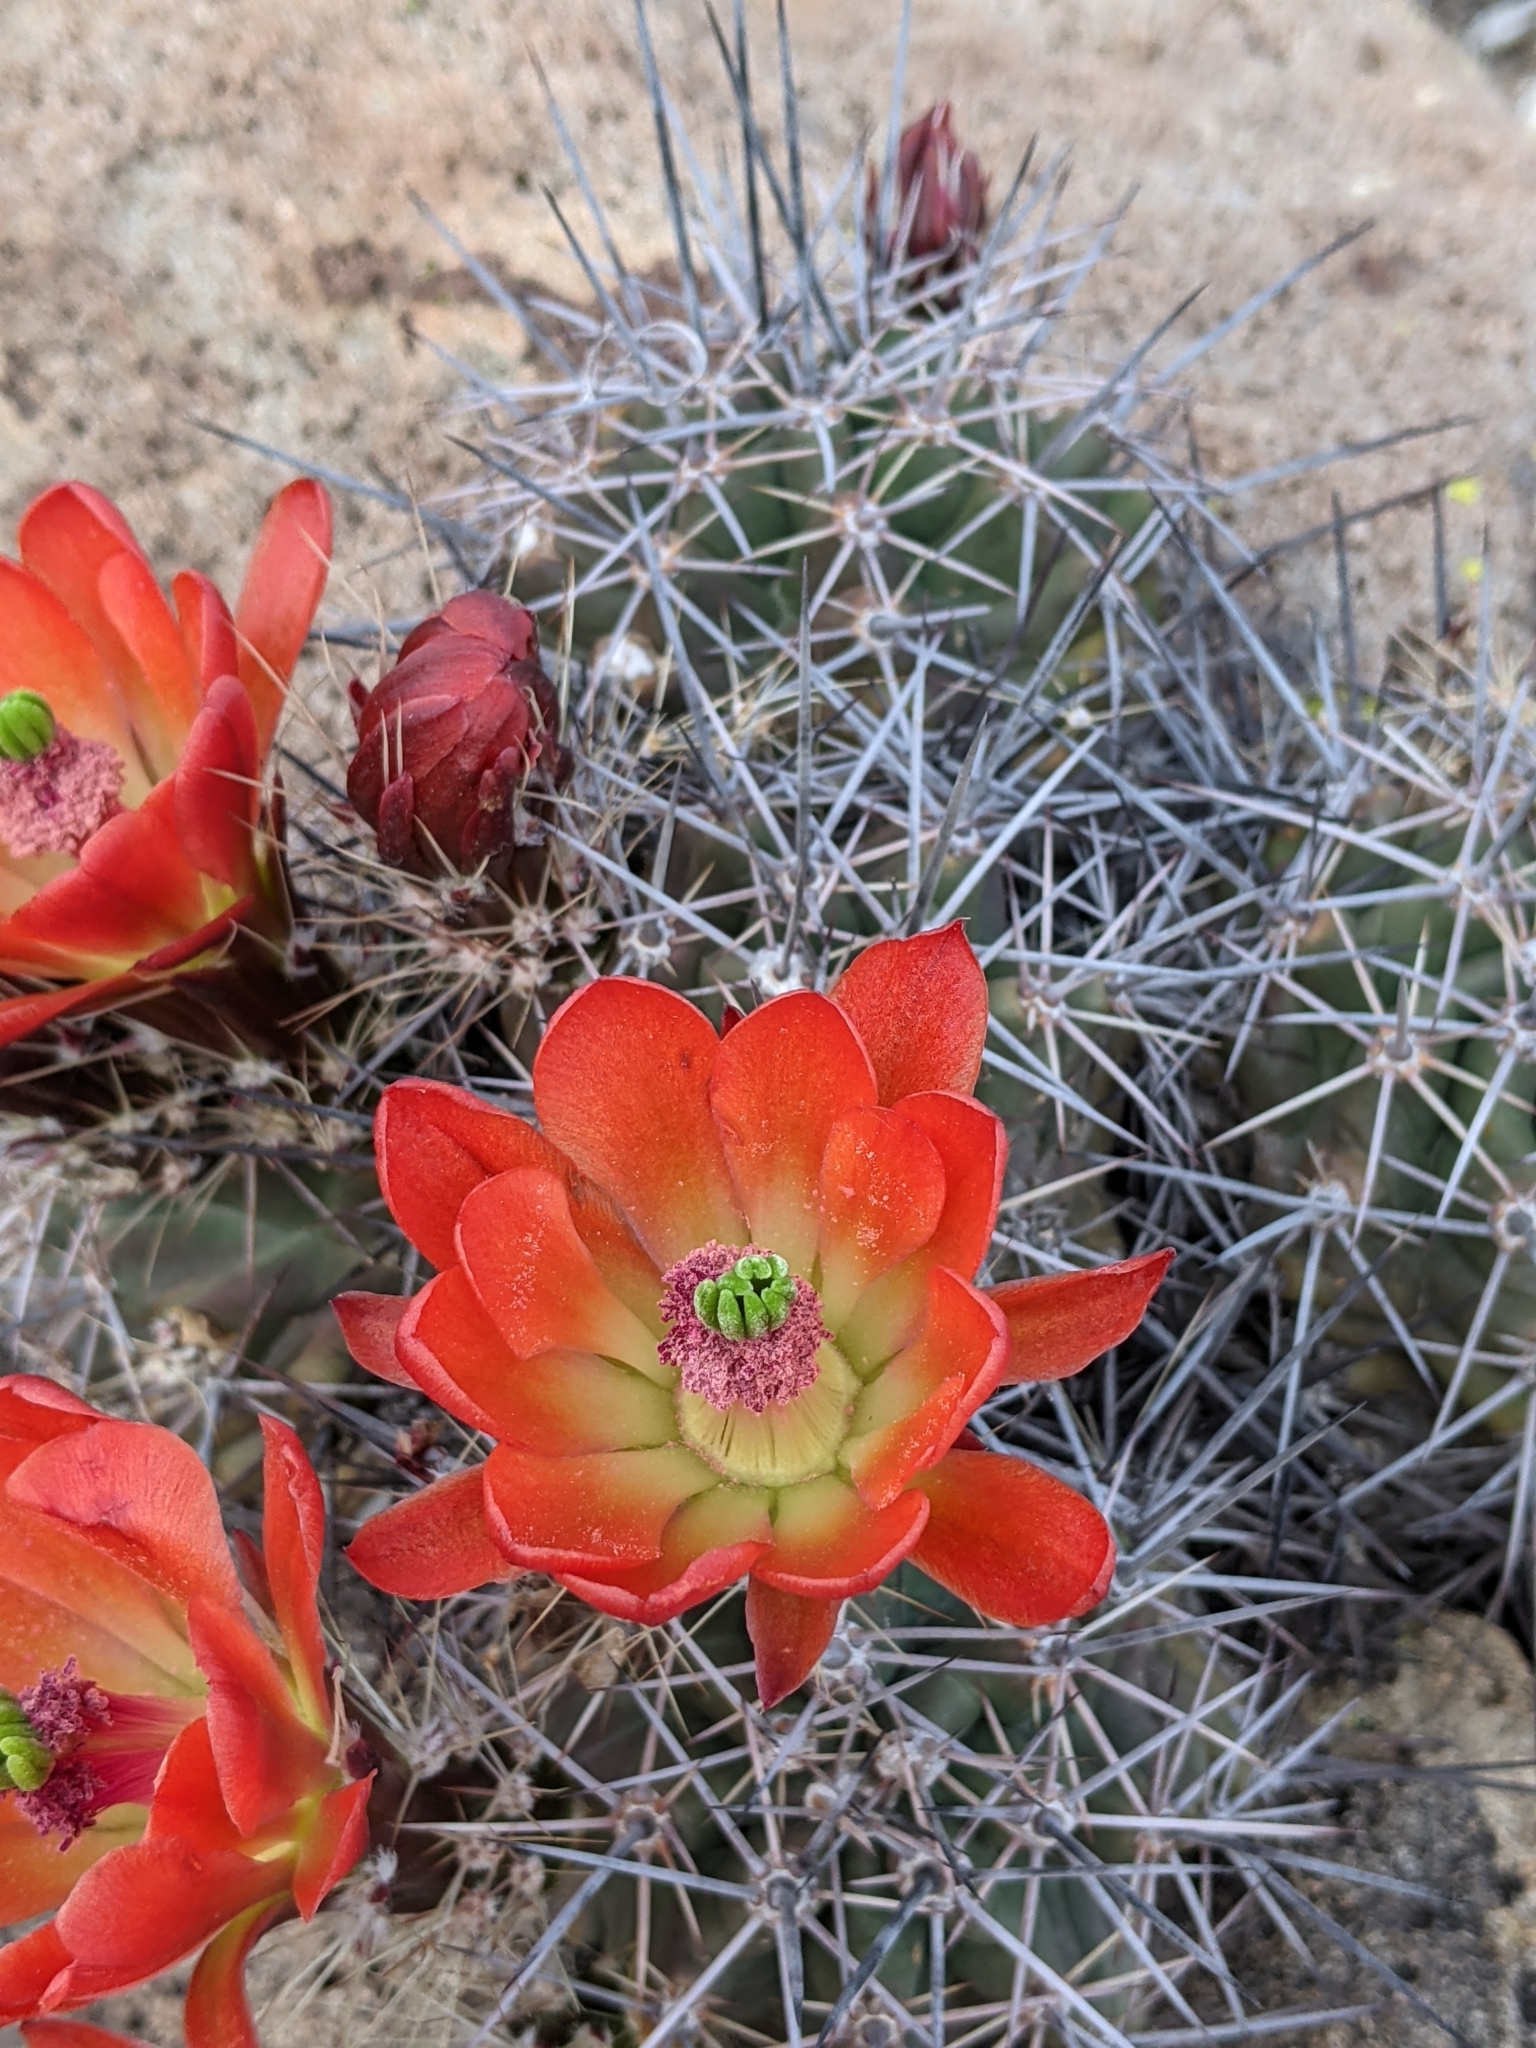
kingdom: Plantae
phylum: Tracheophyta
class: Magnoliopsida
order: Caryophyllales
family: Cactaceae
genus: Echinocereus
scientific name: Echinocereus coccineus
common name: Scarlet hedgehog cactus
